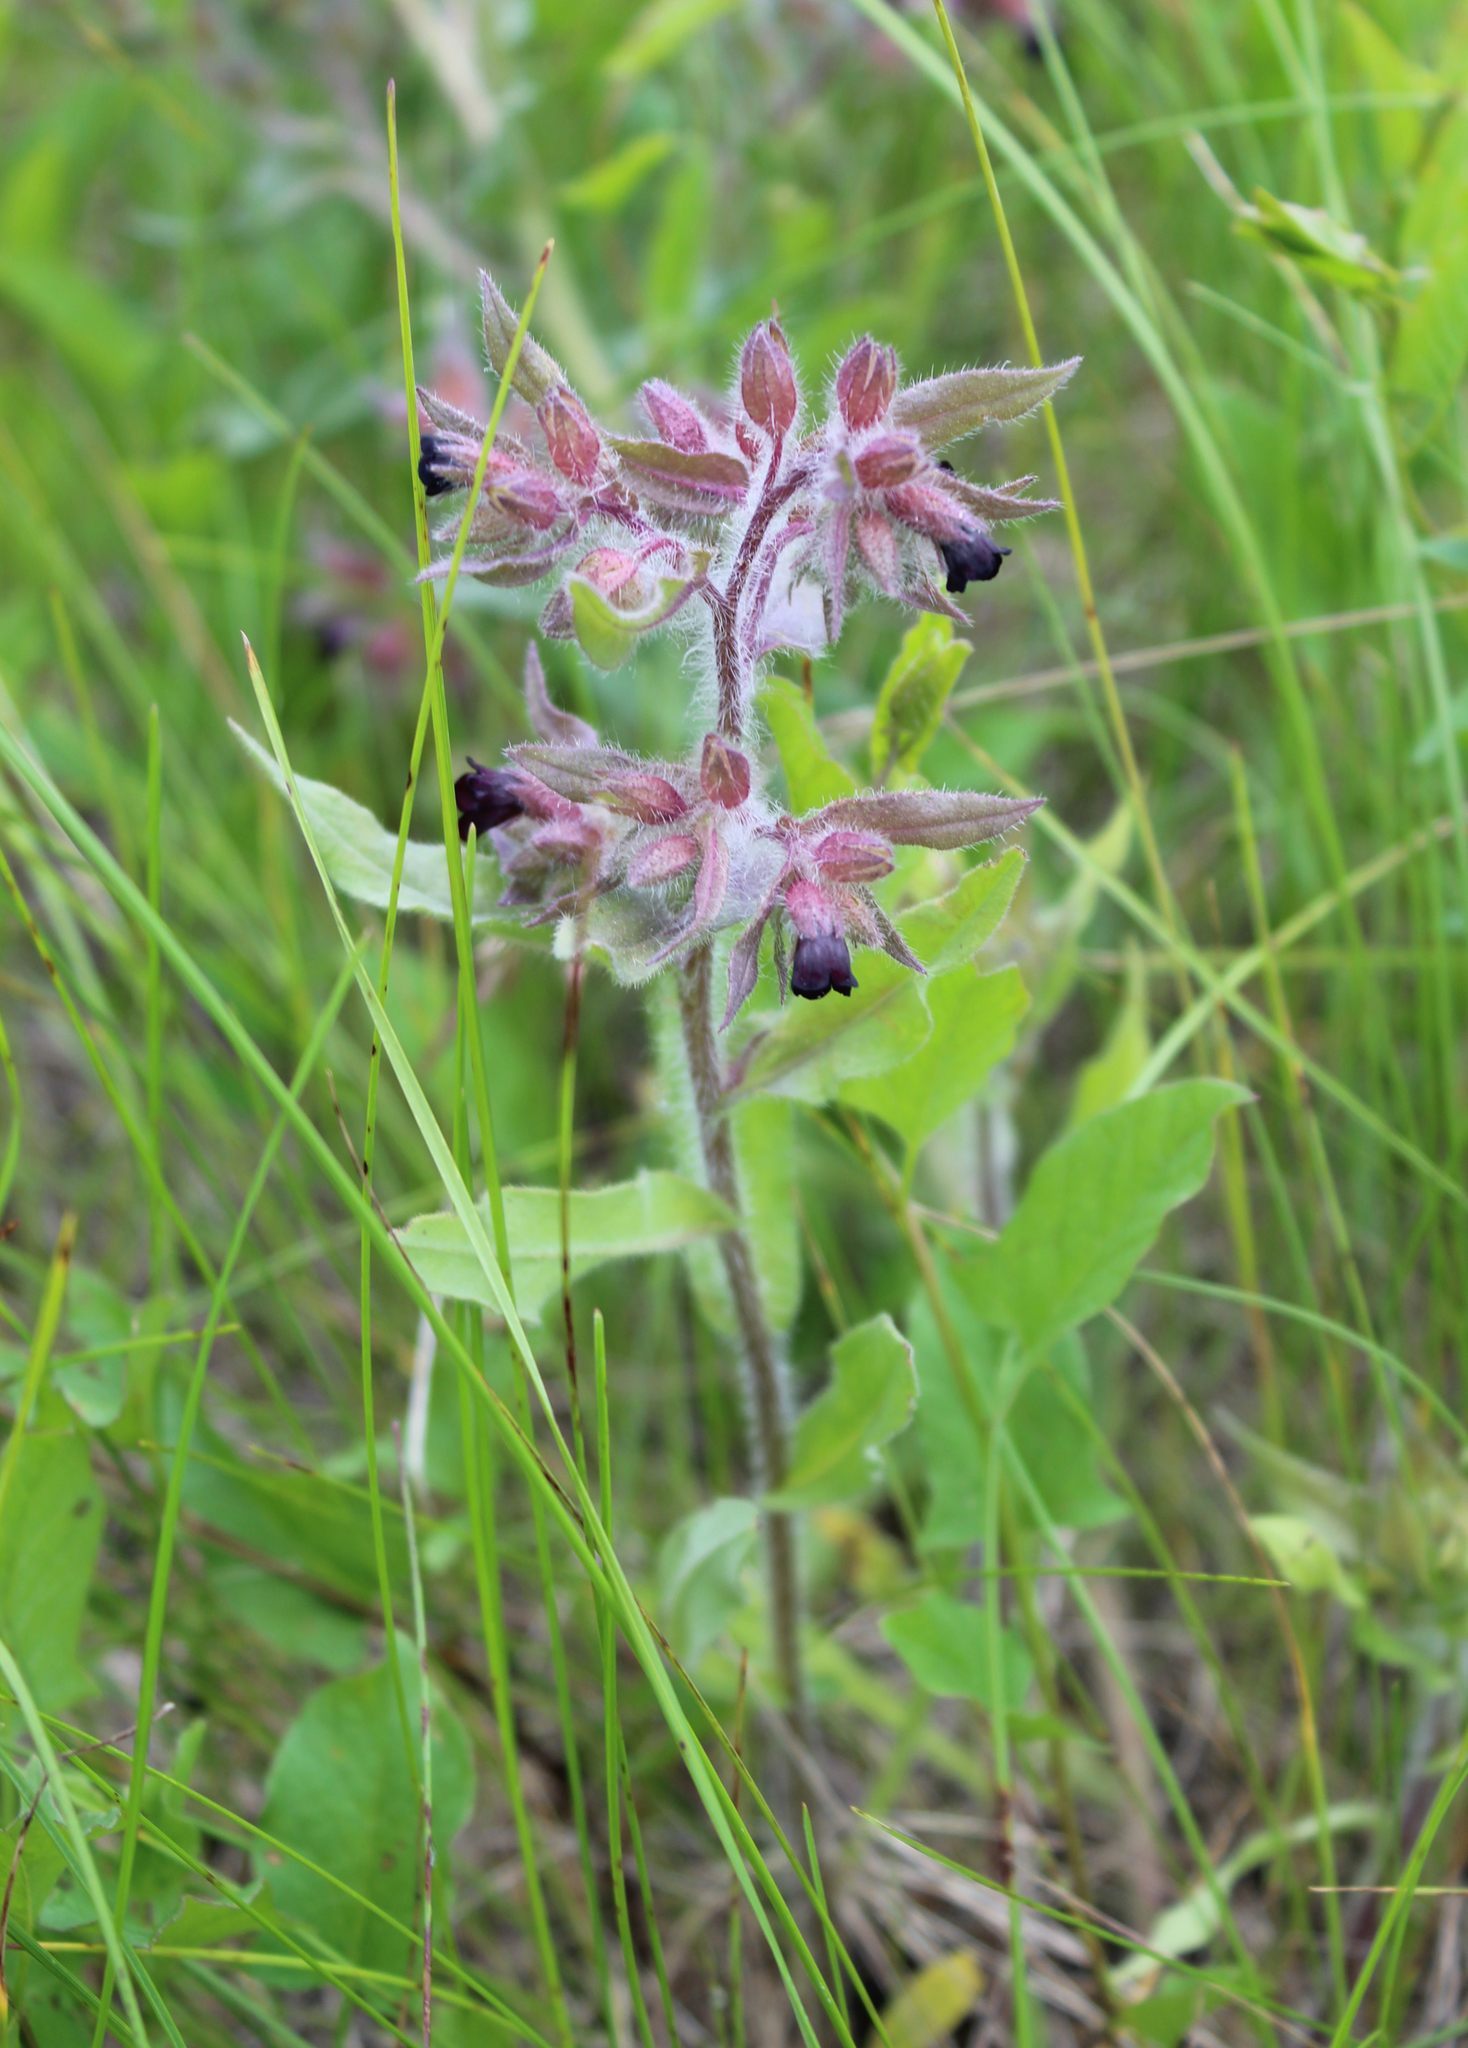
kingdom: Plantae
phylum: Tracheophyta
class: Magnoliopsida
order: Boraginales
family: Boraginaceae
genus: Nonea
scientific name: Nonea pulla
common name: Brown nonea
